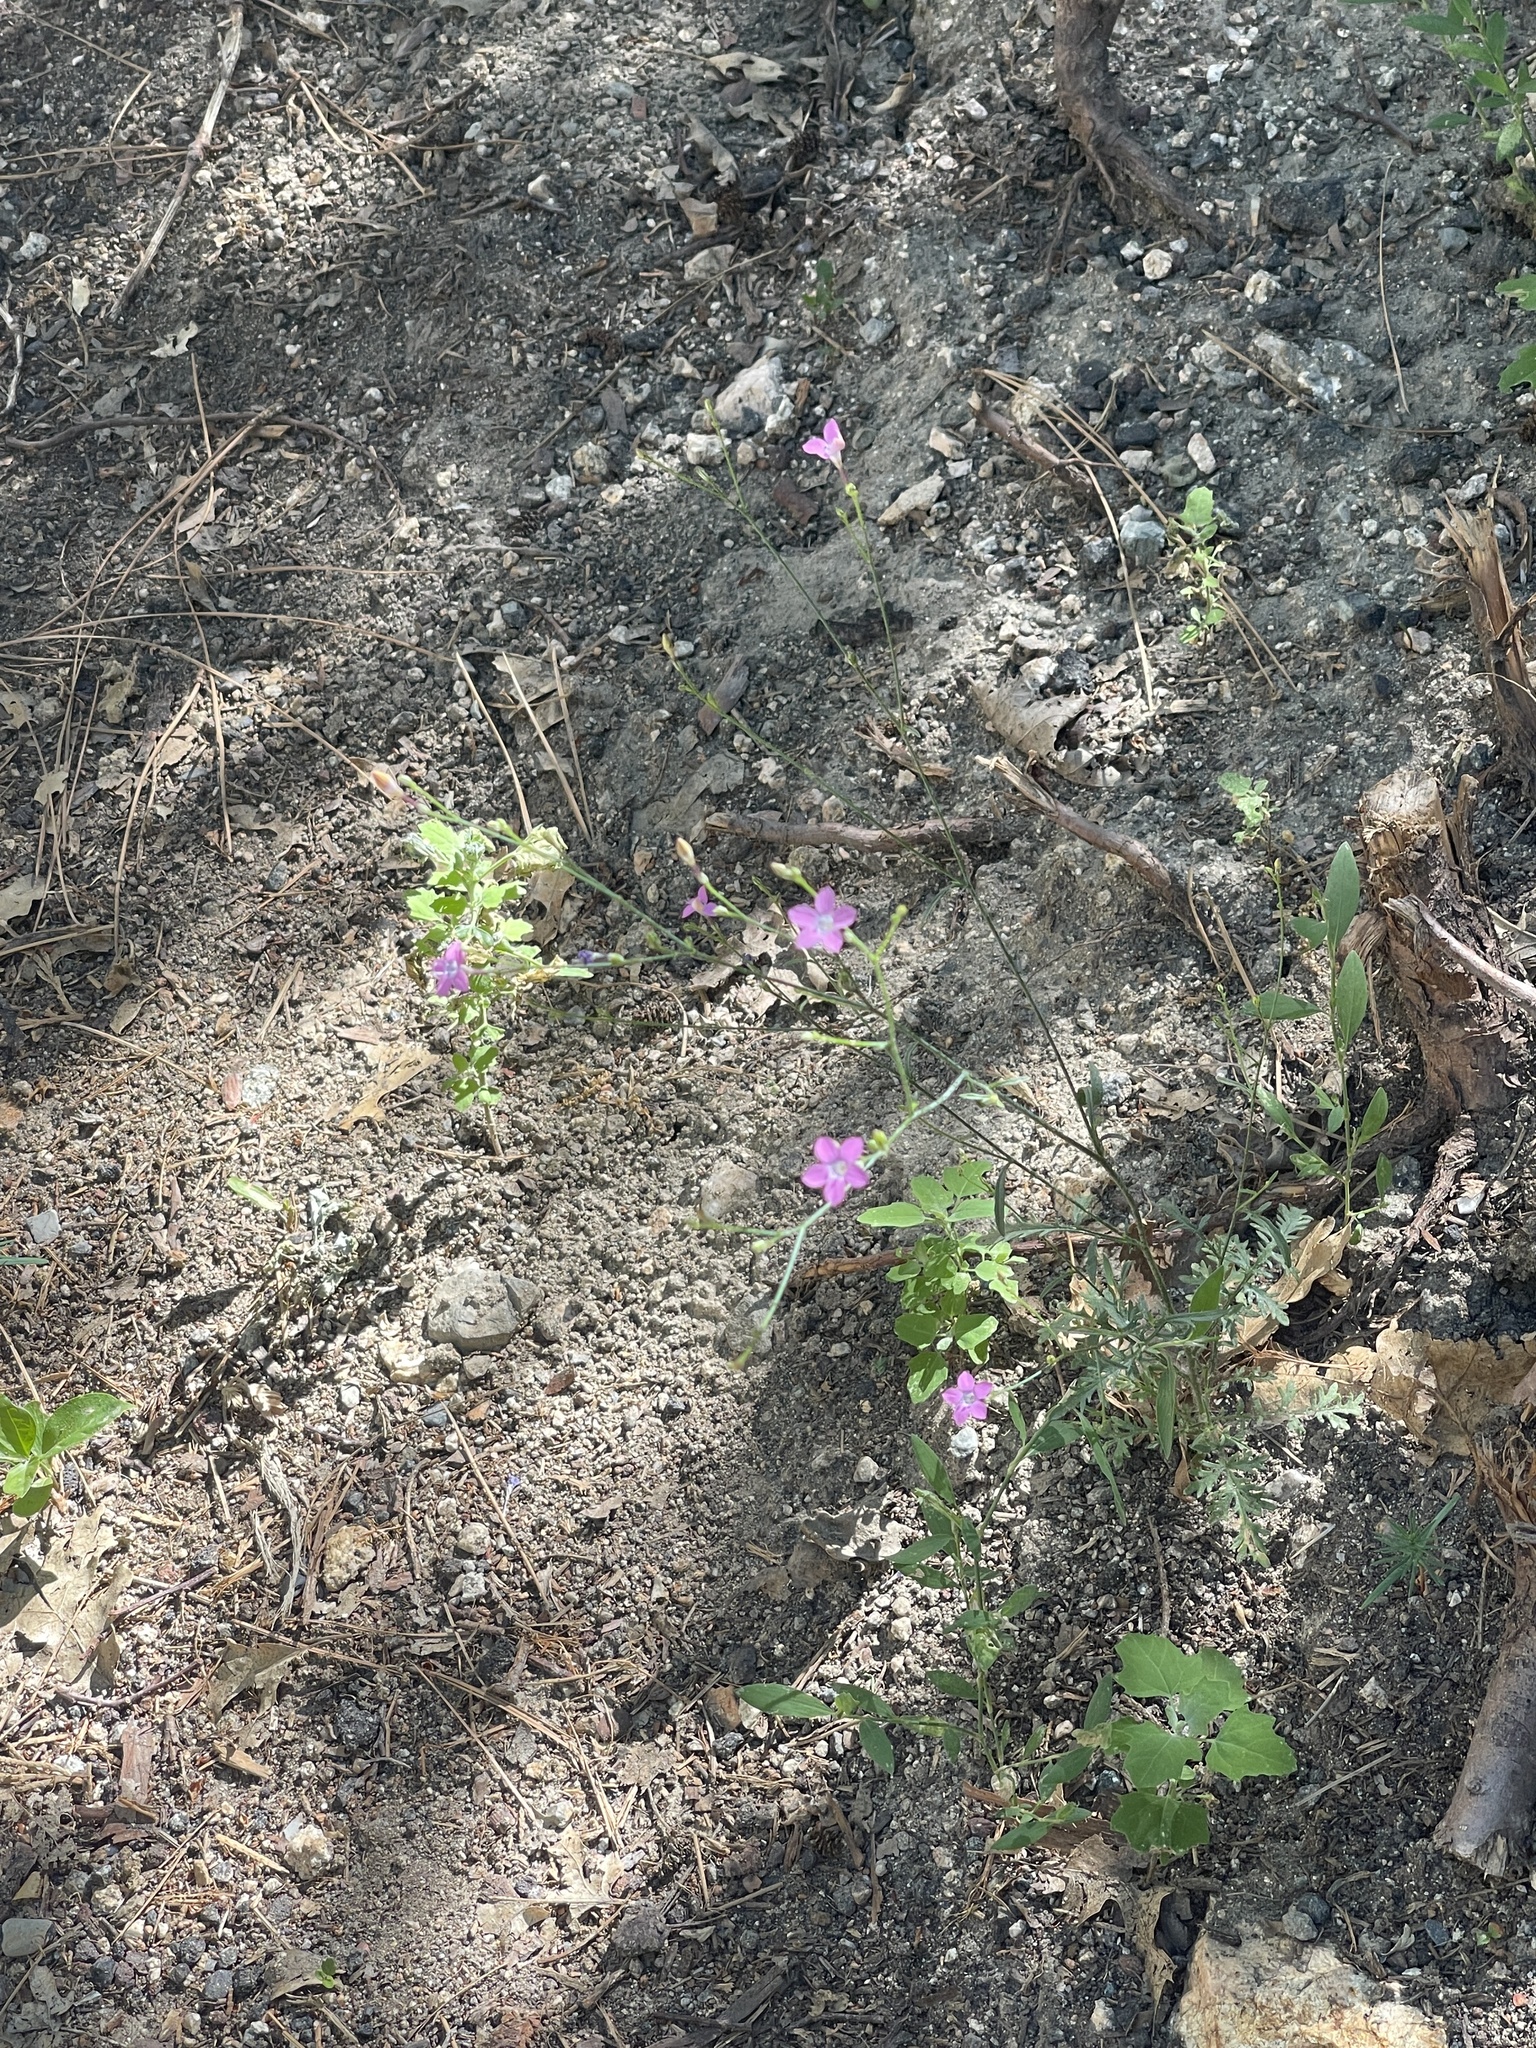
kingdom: Plantae
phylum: Tracheophyta
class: Magnoliopsida
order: Ericales
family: Polemoniaceae
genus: Saltugilia
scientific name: Saltugilia splendens
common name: Grinnell's gilia
